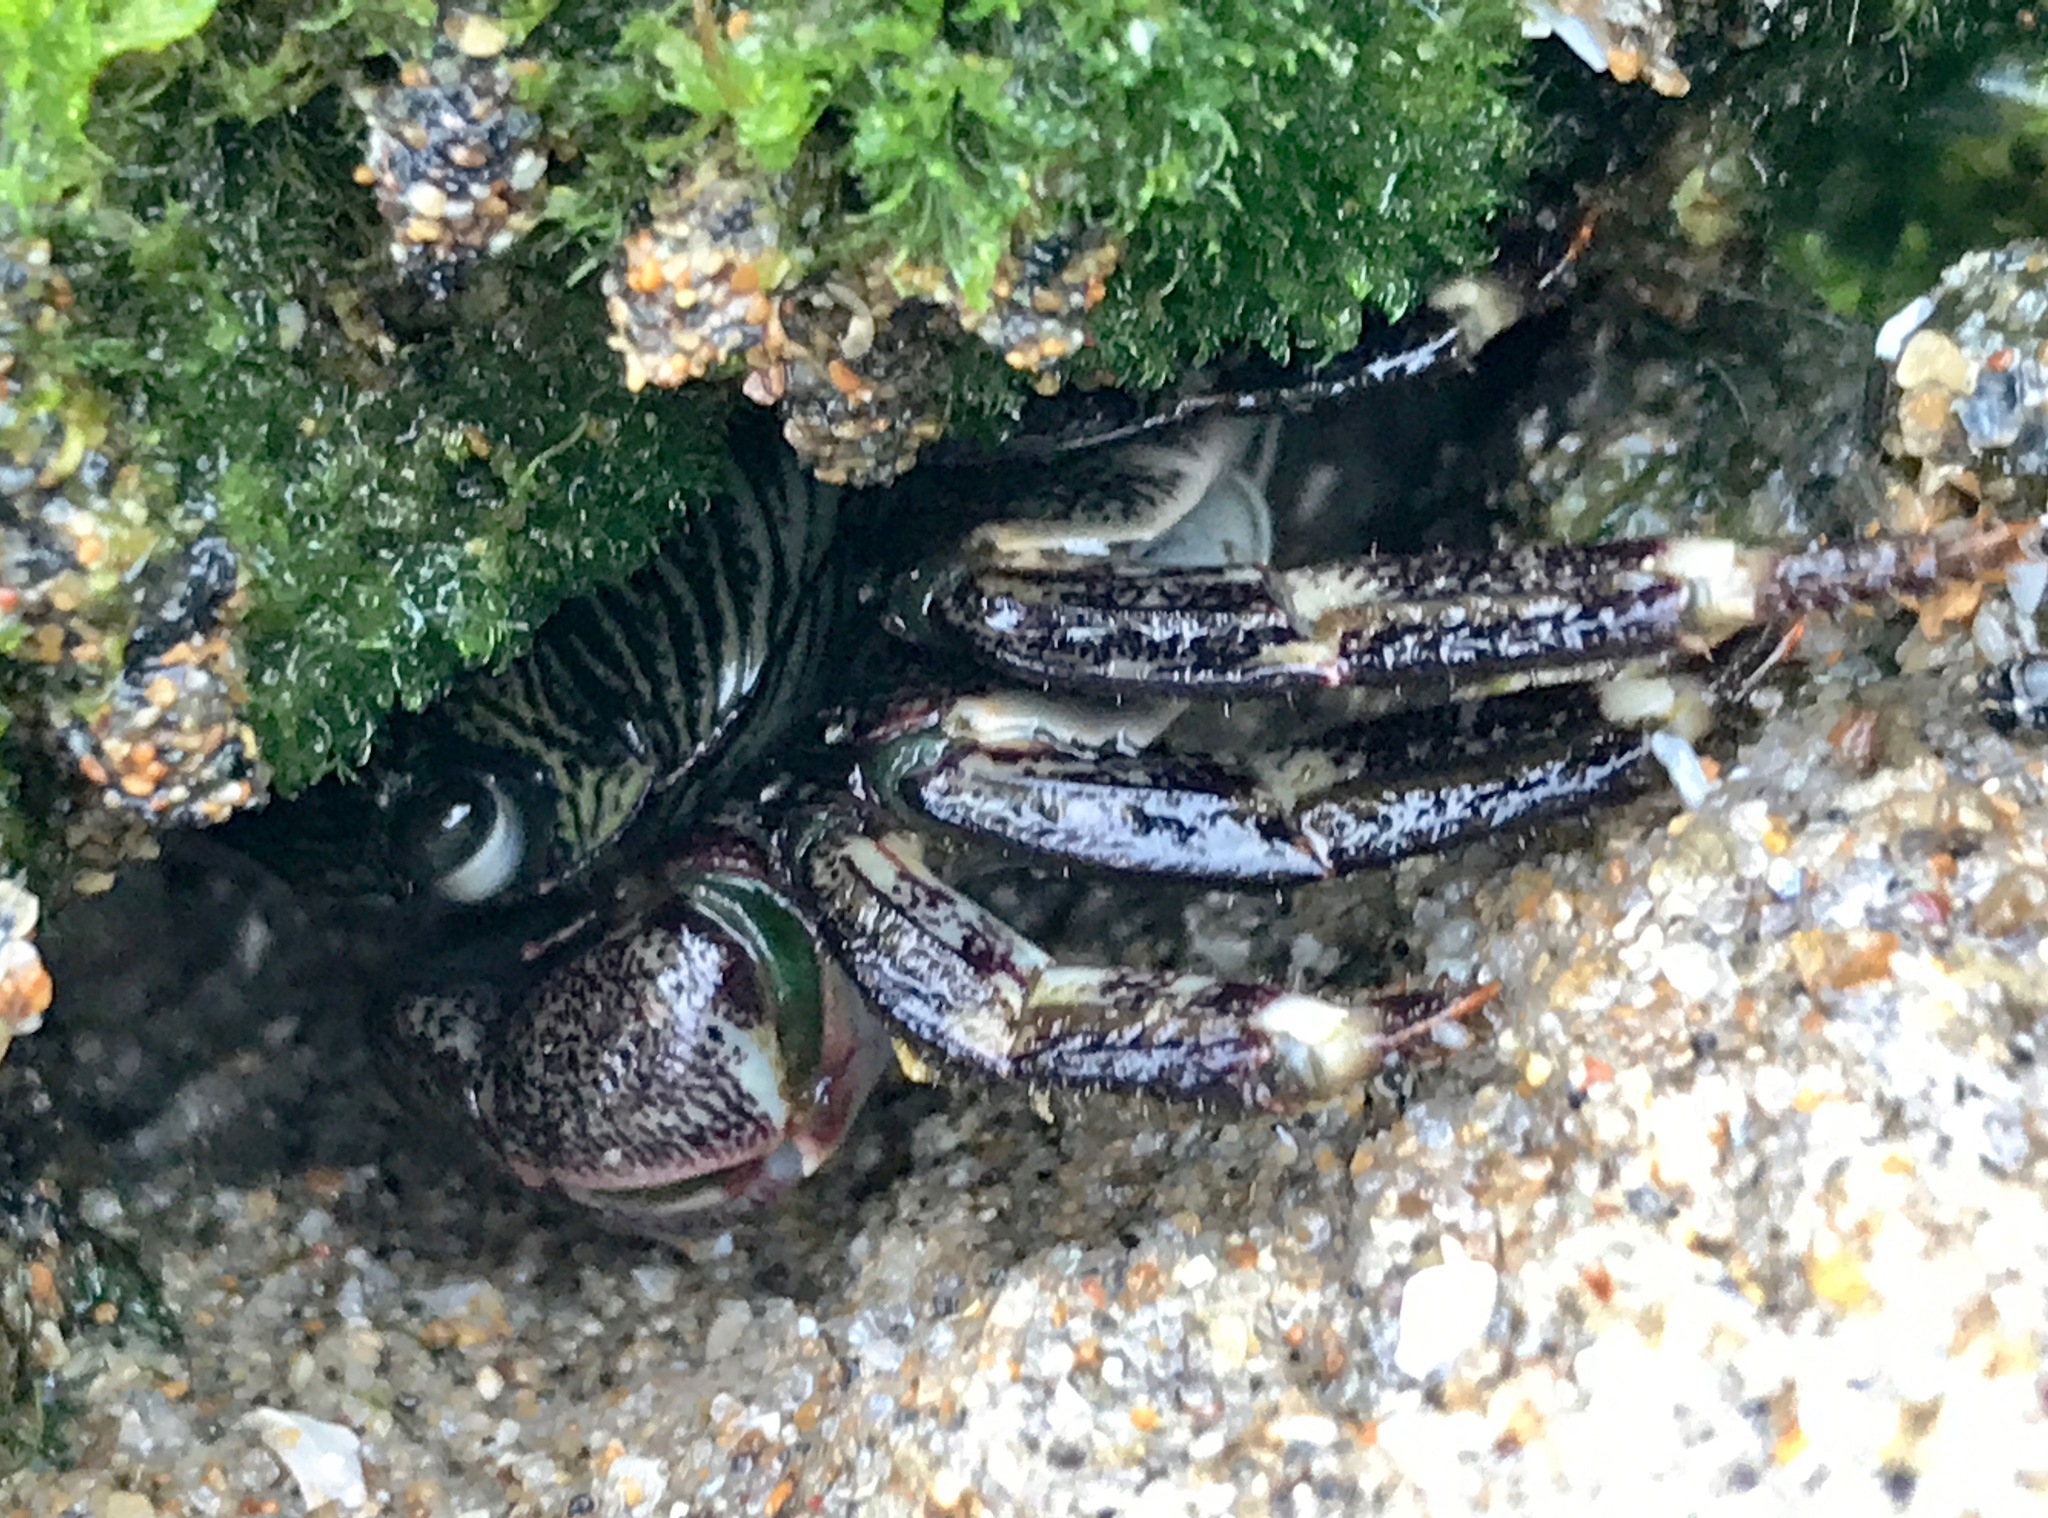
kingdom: Animalia
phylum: Arthropoda
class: Malacostraca
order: Decapoda
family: Grapsidae
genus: Pachygrapsus
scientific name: Pachygrapsus crassipes
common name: Striped shore crab
